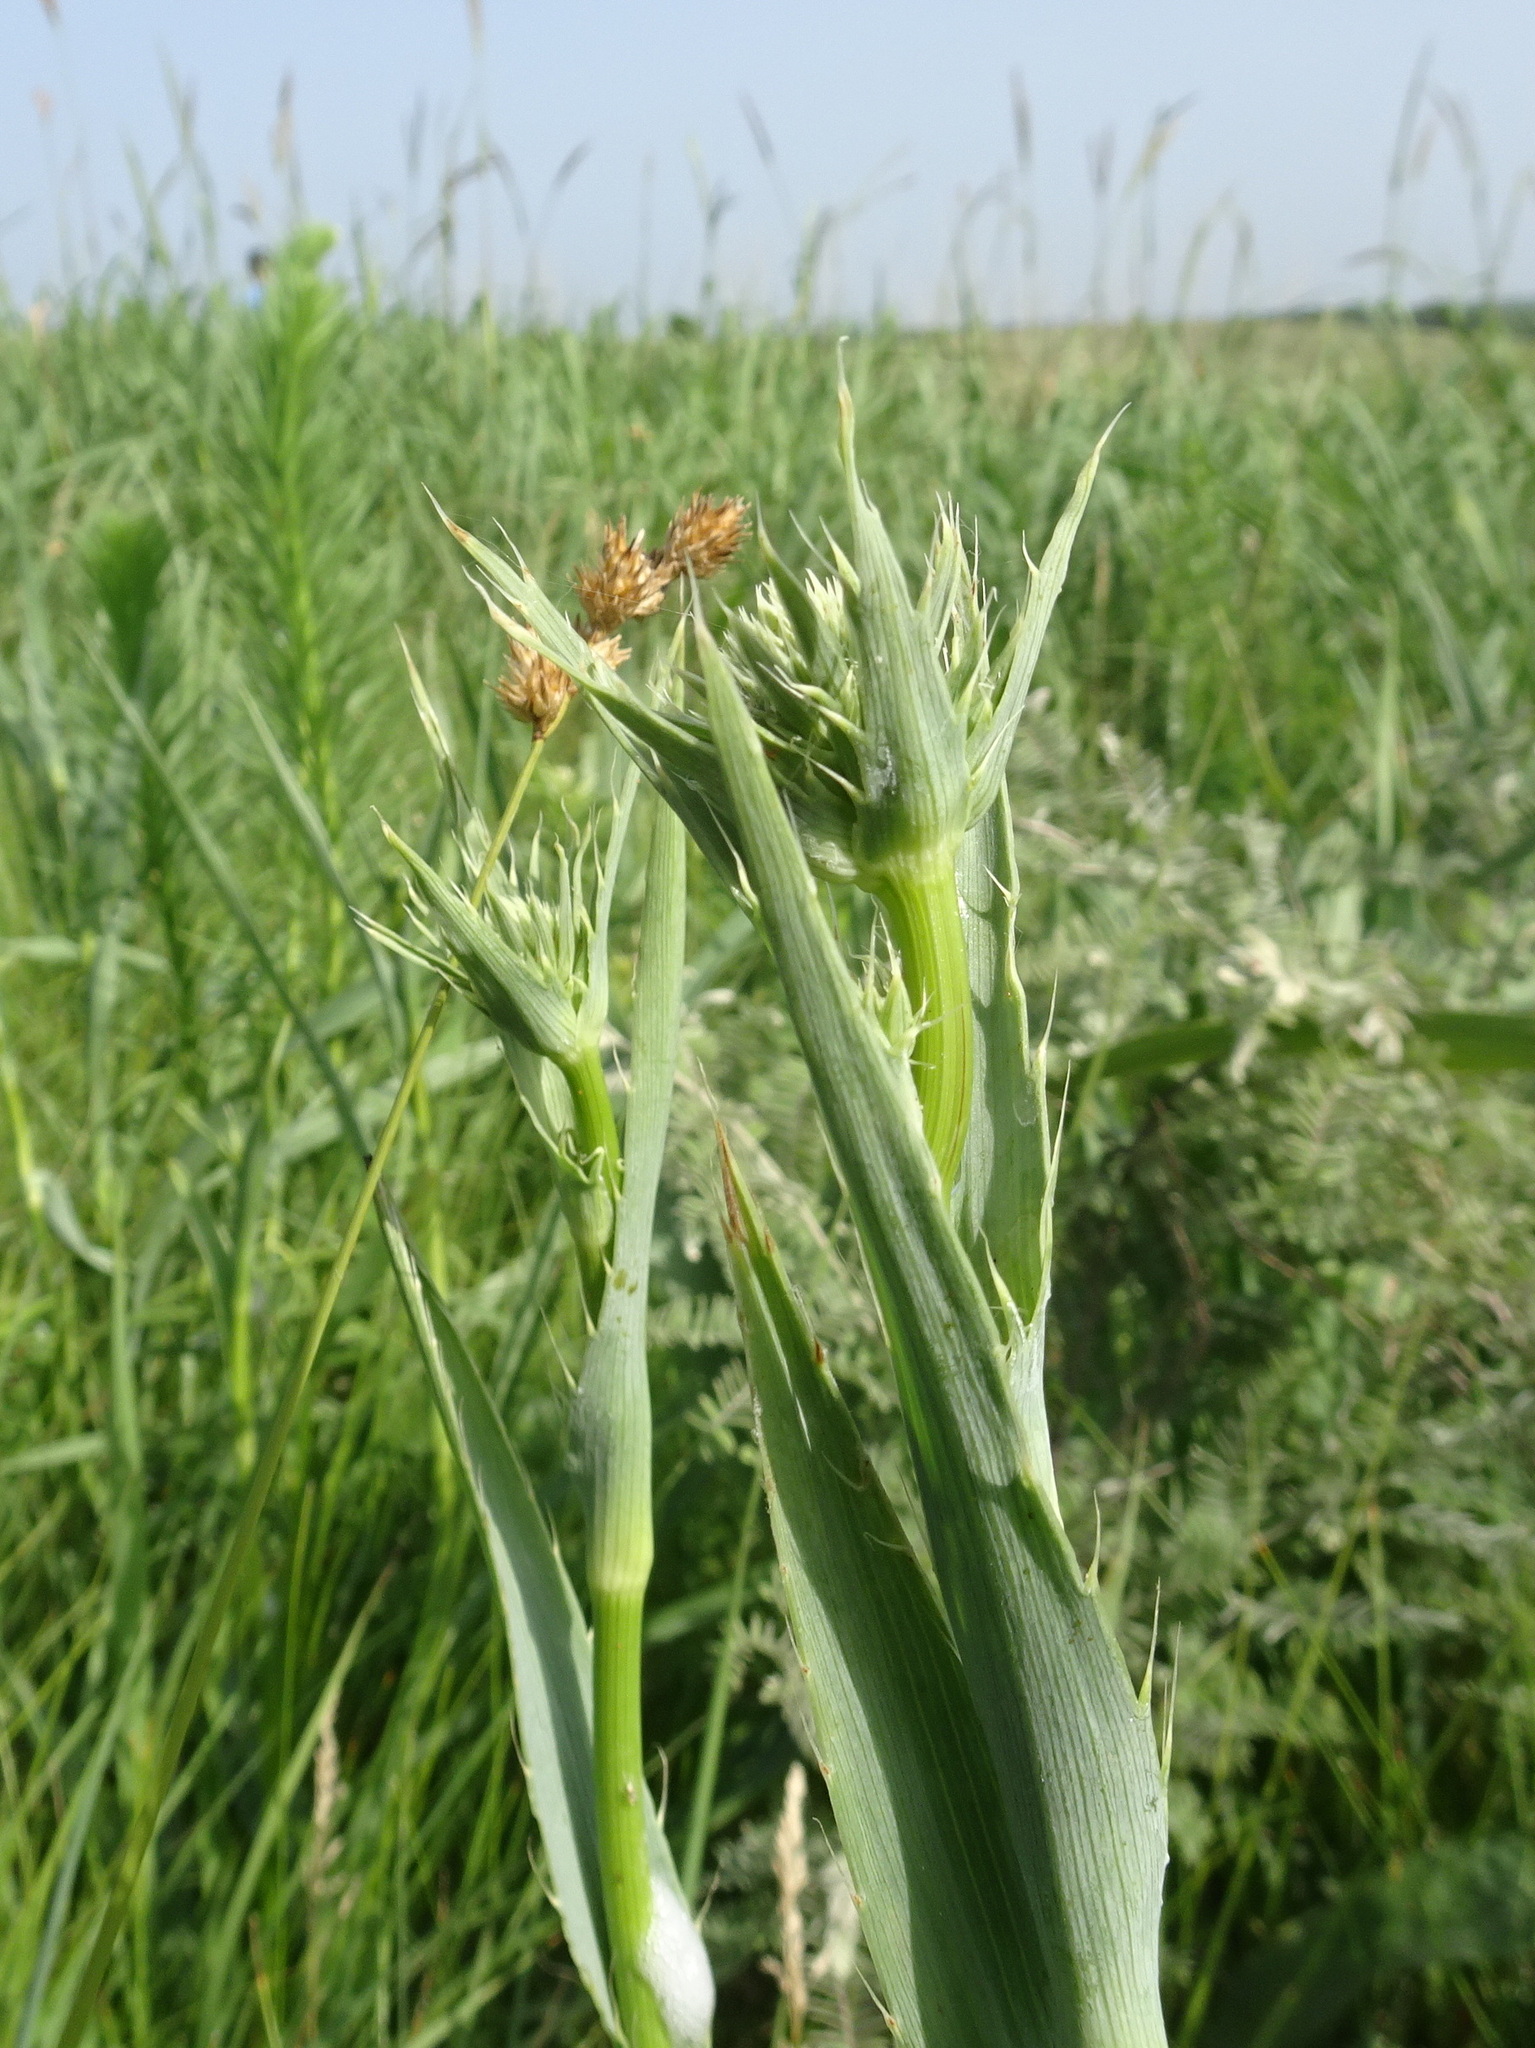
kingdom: Plantae
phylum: Tracheophyta
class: Magnoliopsida
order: Apiales
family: Apiaceae
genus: Eryngium
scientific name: Eryngium yuccifolium
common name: Button eryngo
